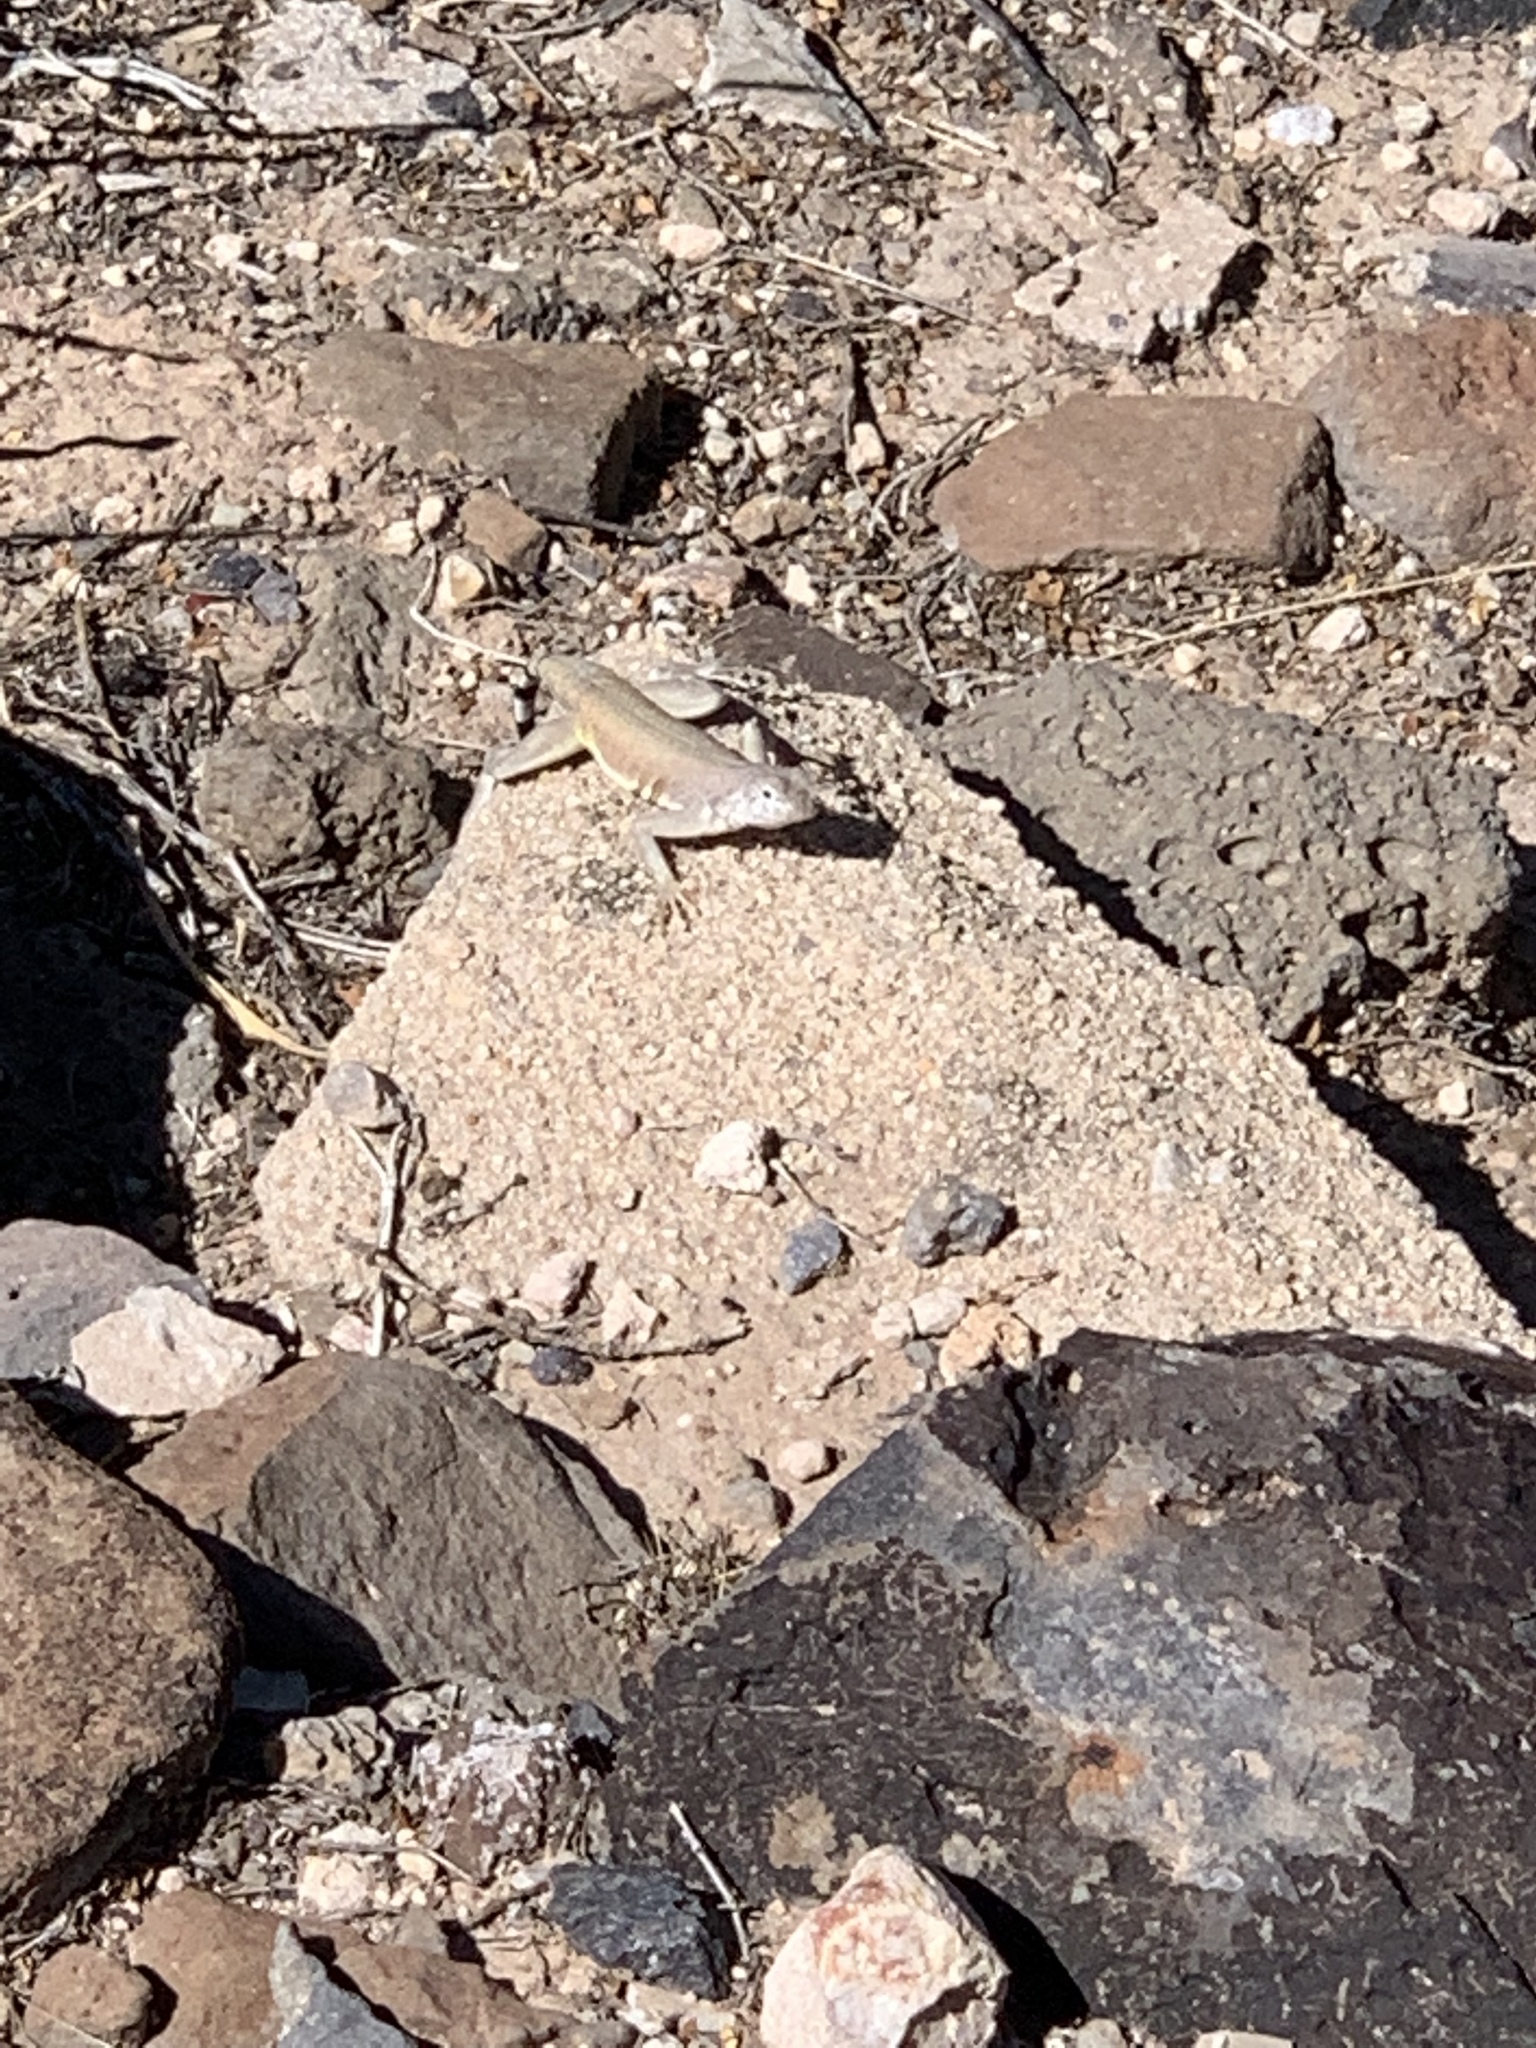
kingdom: Animalia
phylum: Chordata
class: Squamata
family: Phrynosomatidae
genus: Callisaurus
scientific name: Callisaurus draconoides
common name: Zebra-tailed lizard
